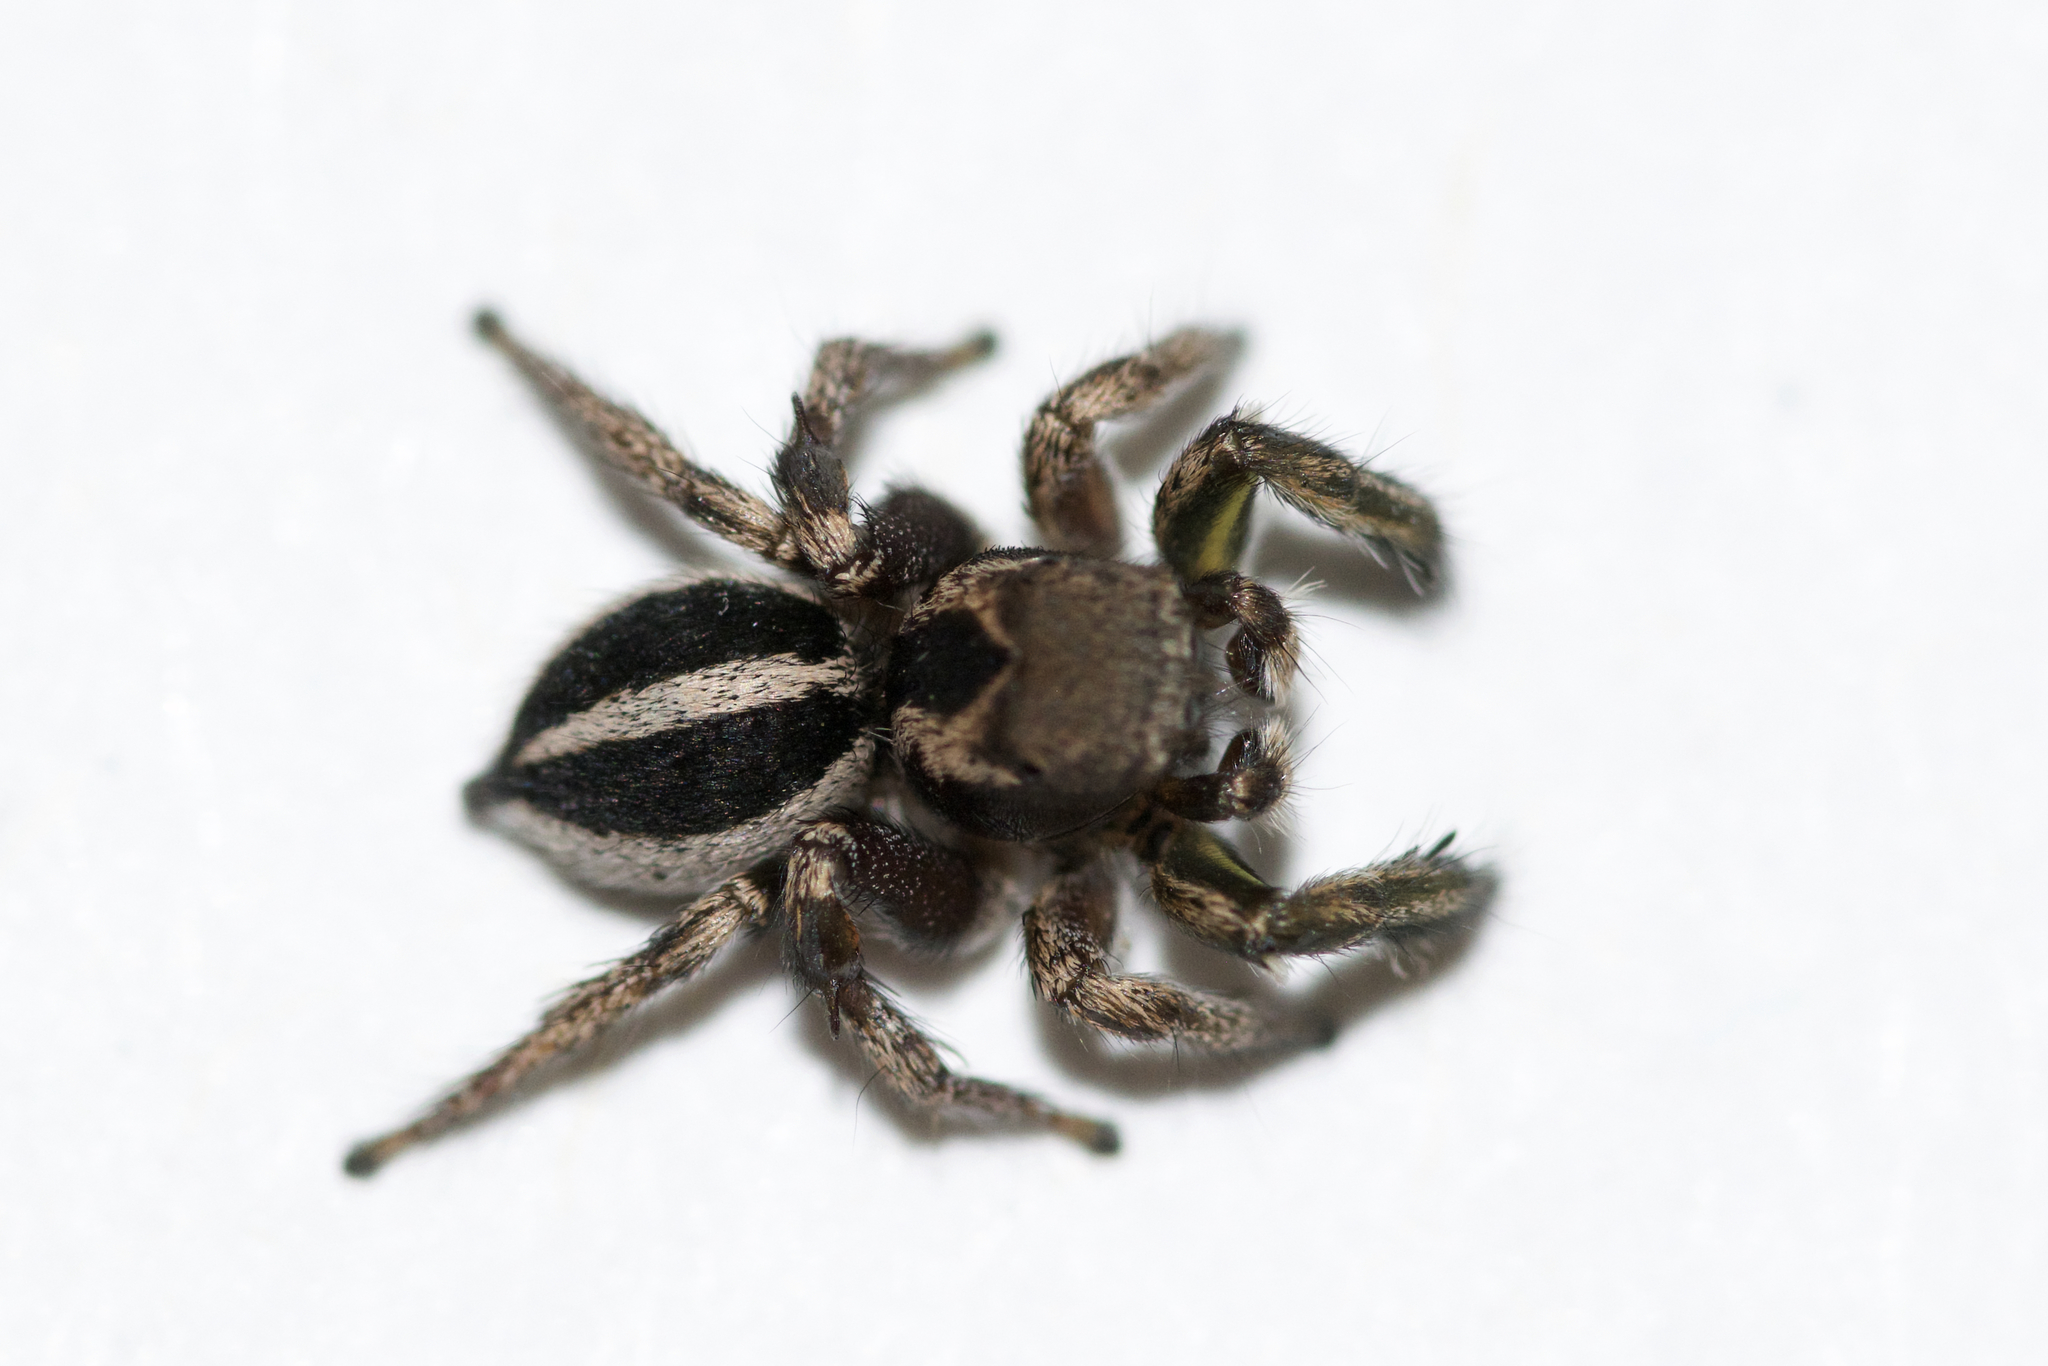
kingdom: Animalia
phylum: Arthropoda
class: Arachnida
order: Araneae
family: Salticidae
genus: Habronattus
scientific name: Habronattus calcaratus
